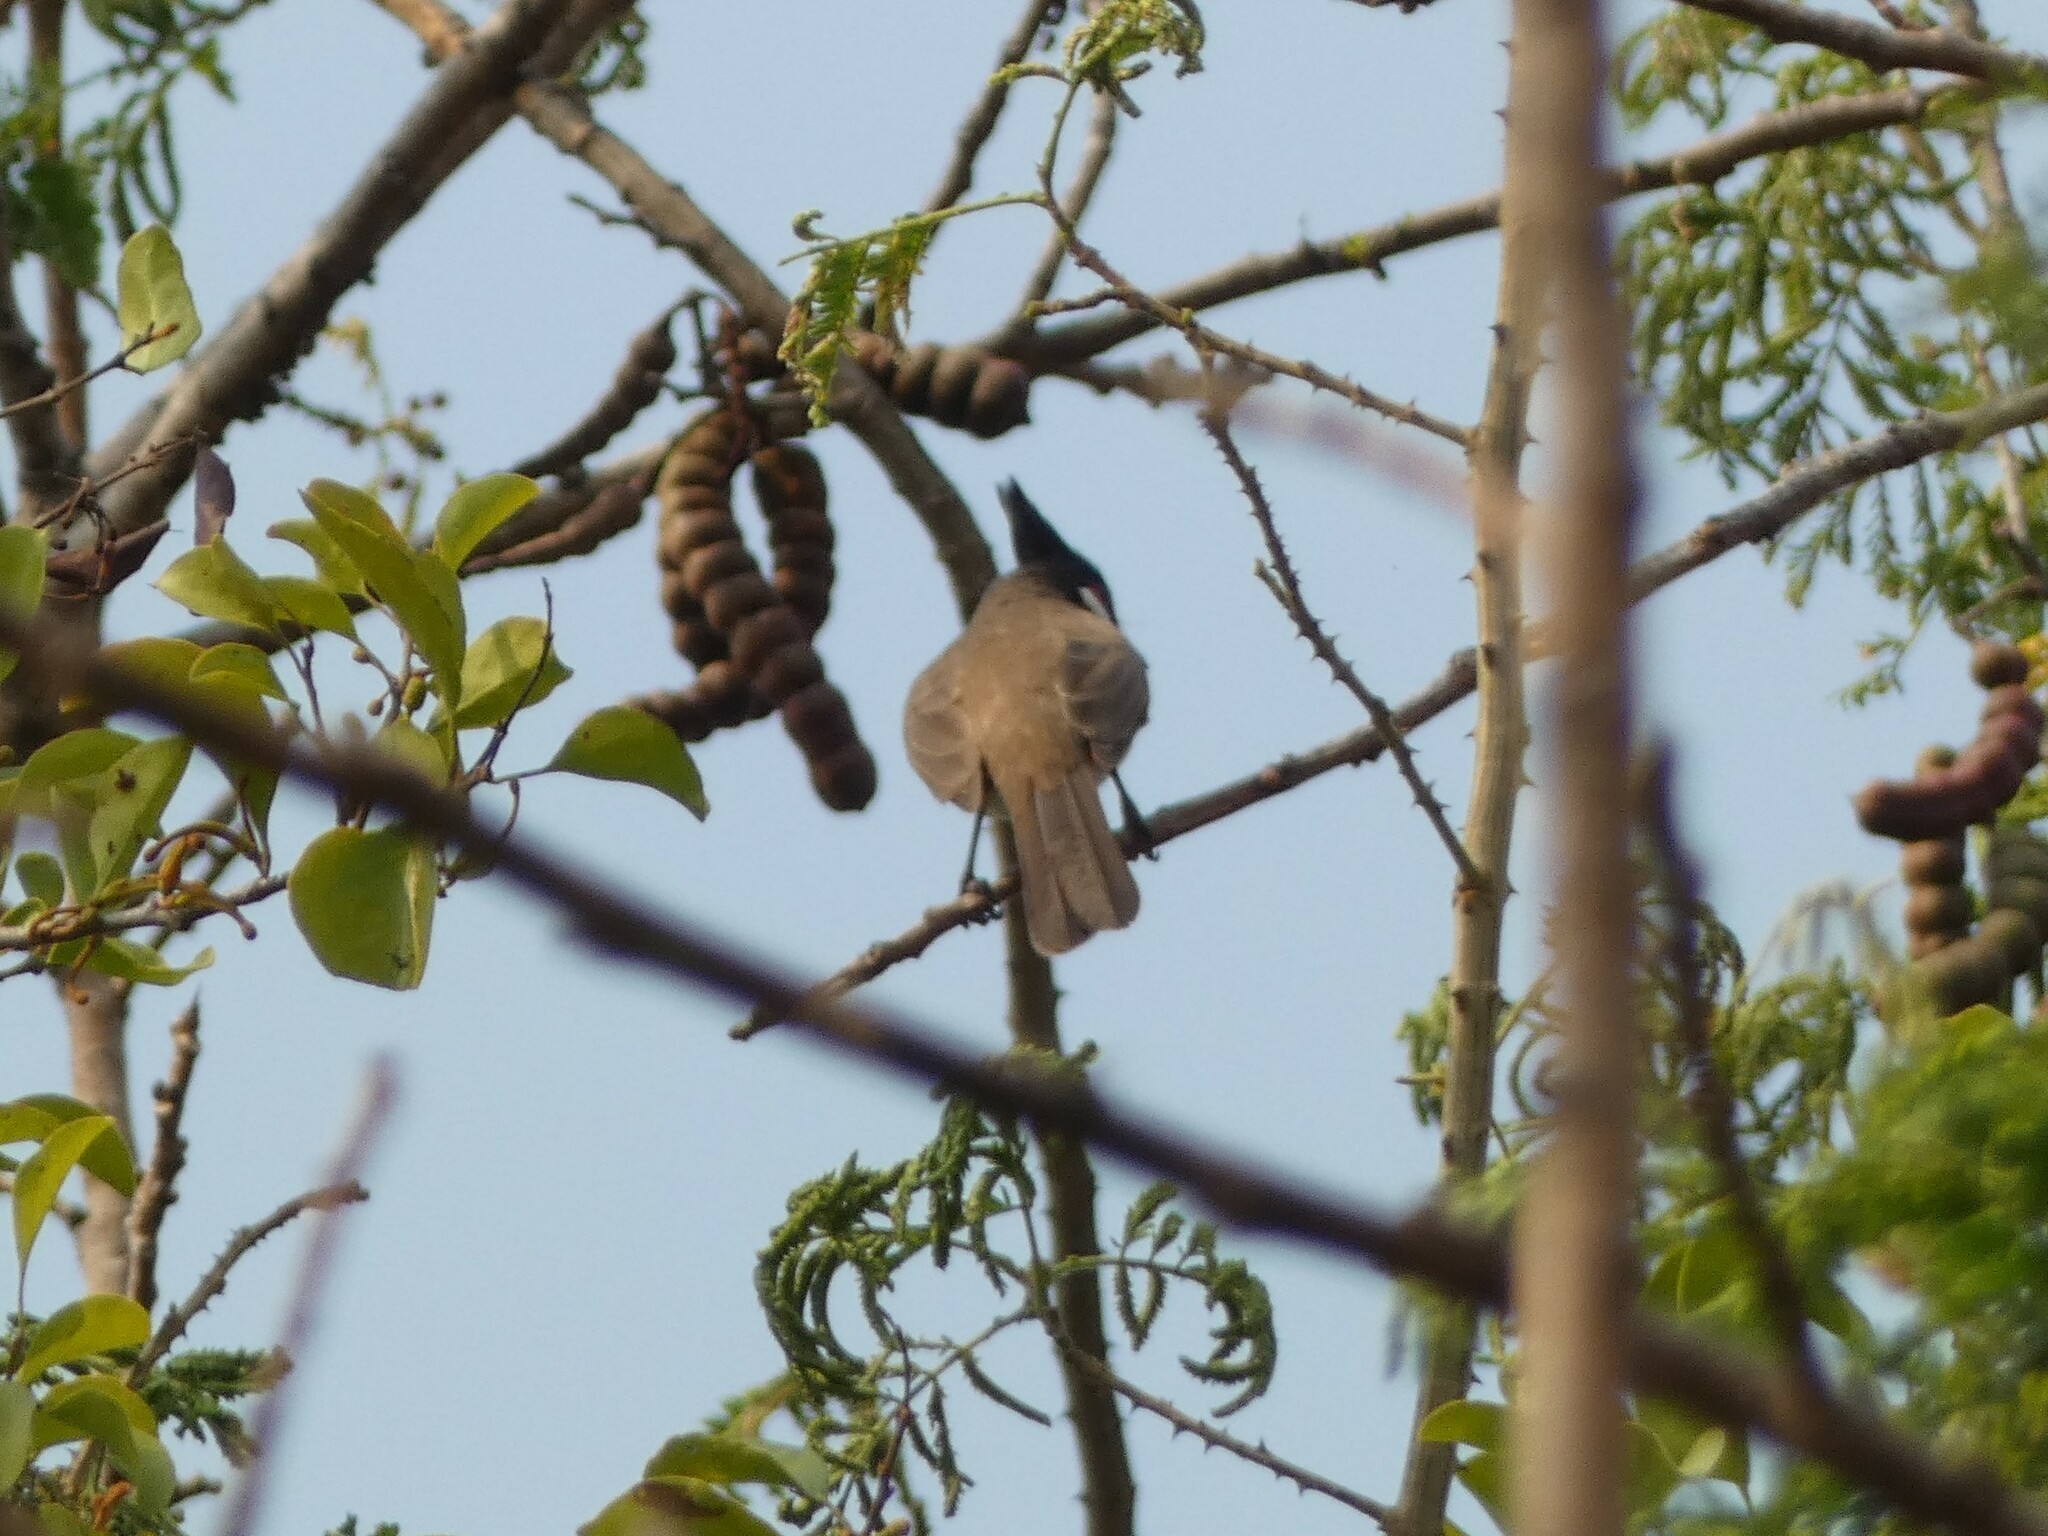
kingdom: Animalia
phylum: Chordata
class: Aves
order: Passeriformes
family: Pycnonotidae
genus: Pycnonotus
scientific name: Pycnonotus jocosus
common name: Red-whiskered bulbul
